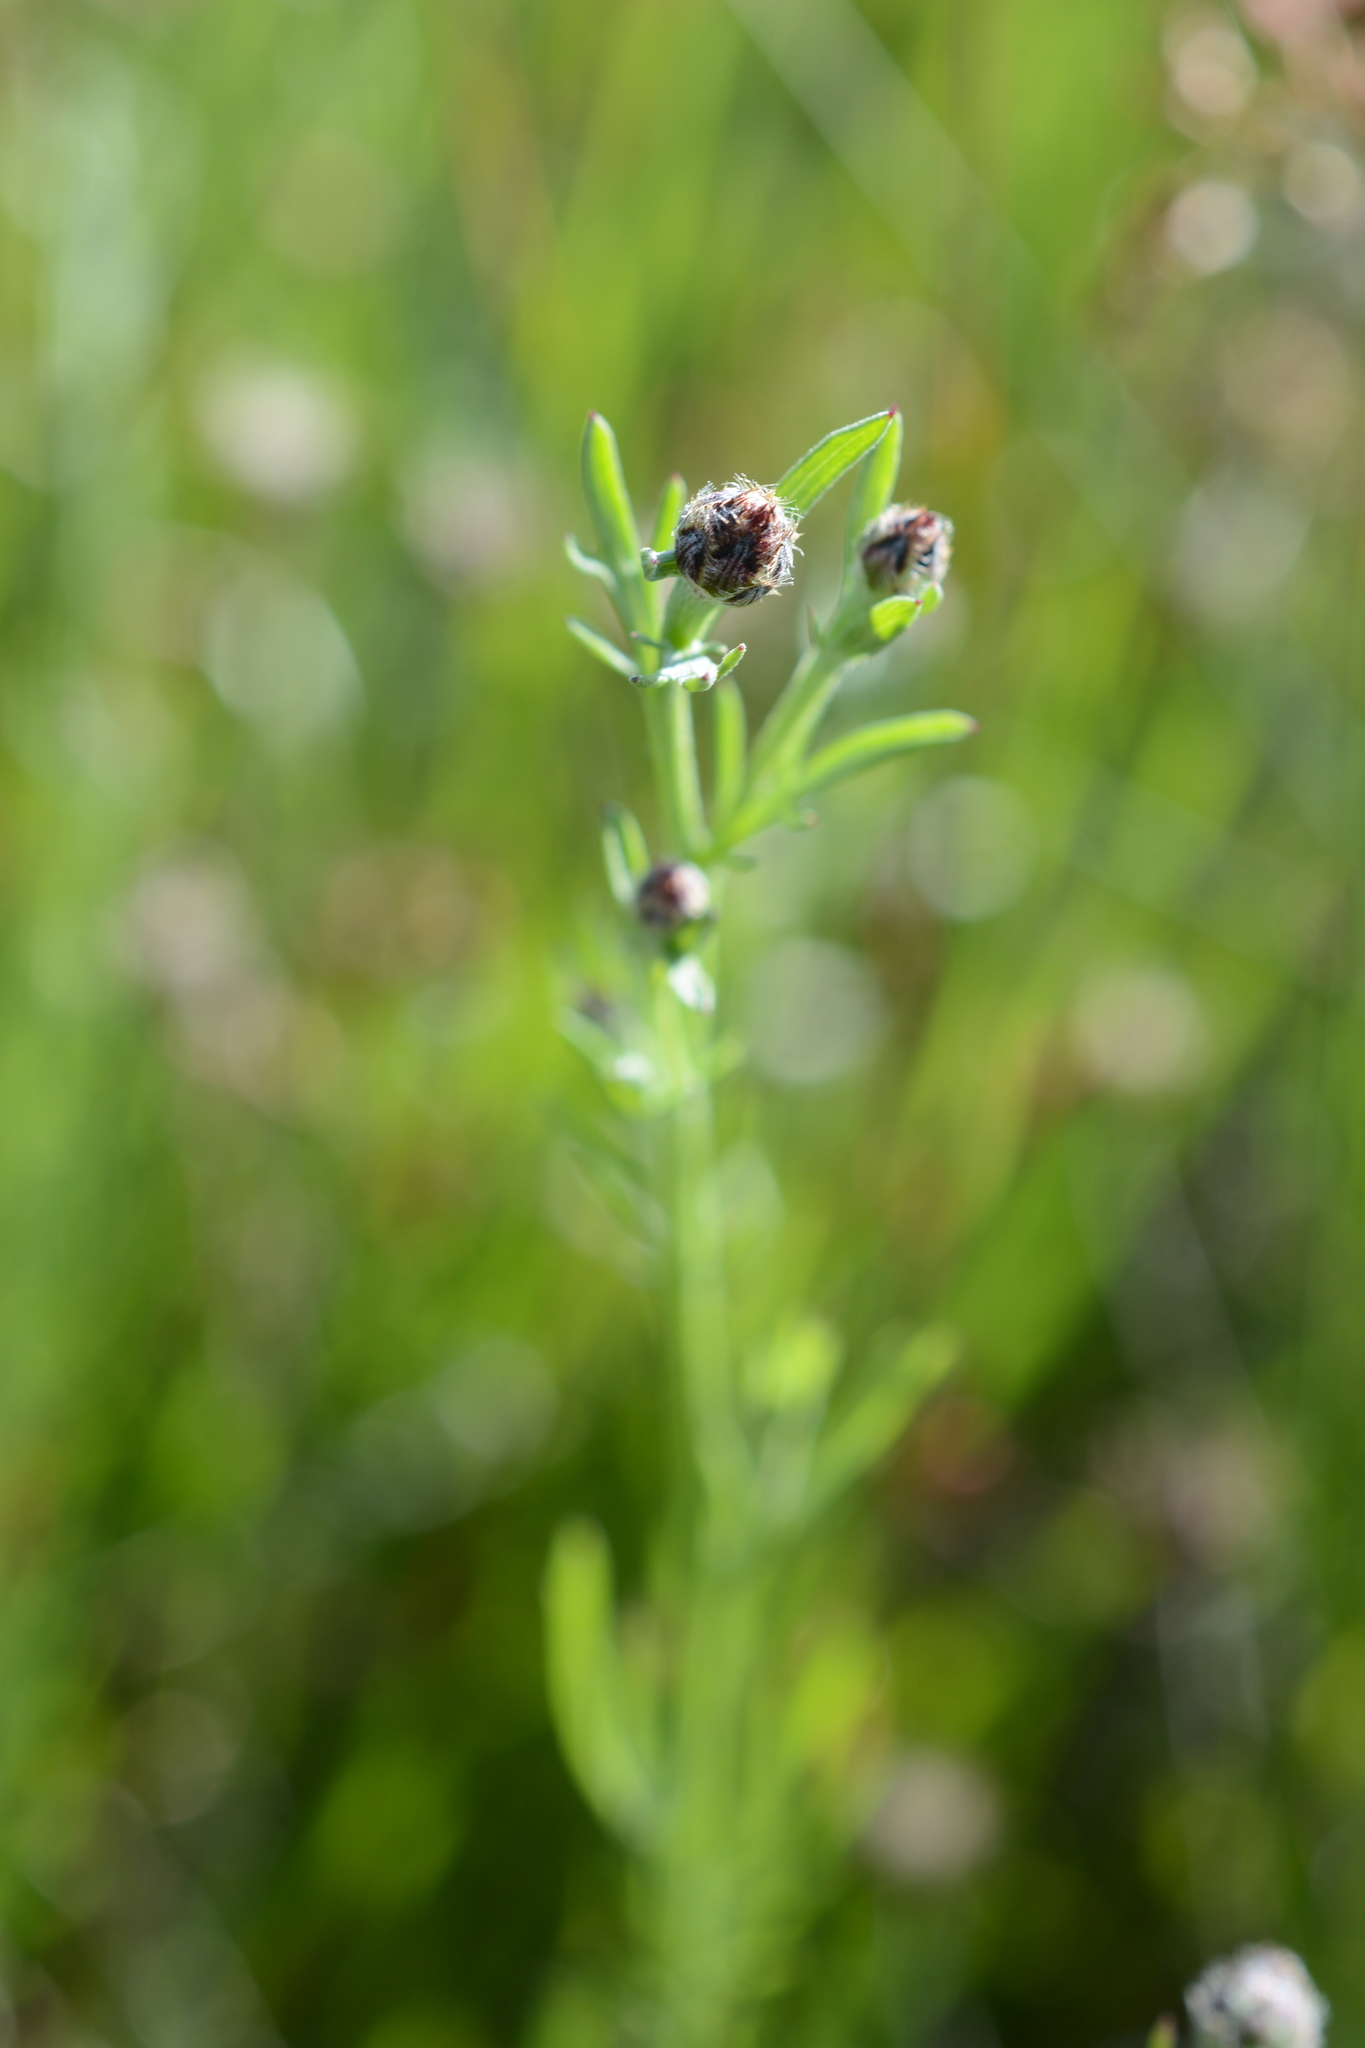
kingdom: Plantae
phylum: Tracheophyta
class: Magnoliopsida
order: Asterales
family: Asteraceae
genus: Centaurea
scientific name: Centaurea stoebe
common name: Spotted knapweed
